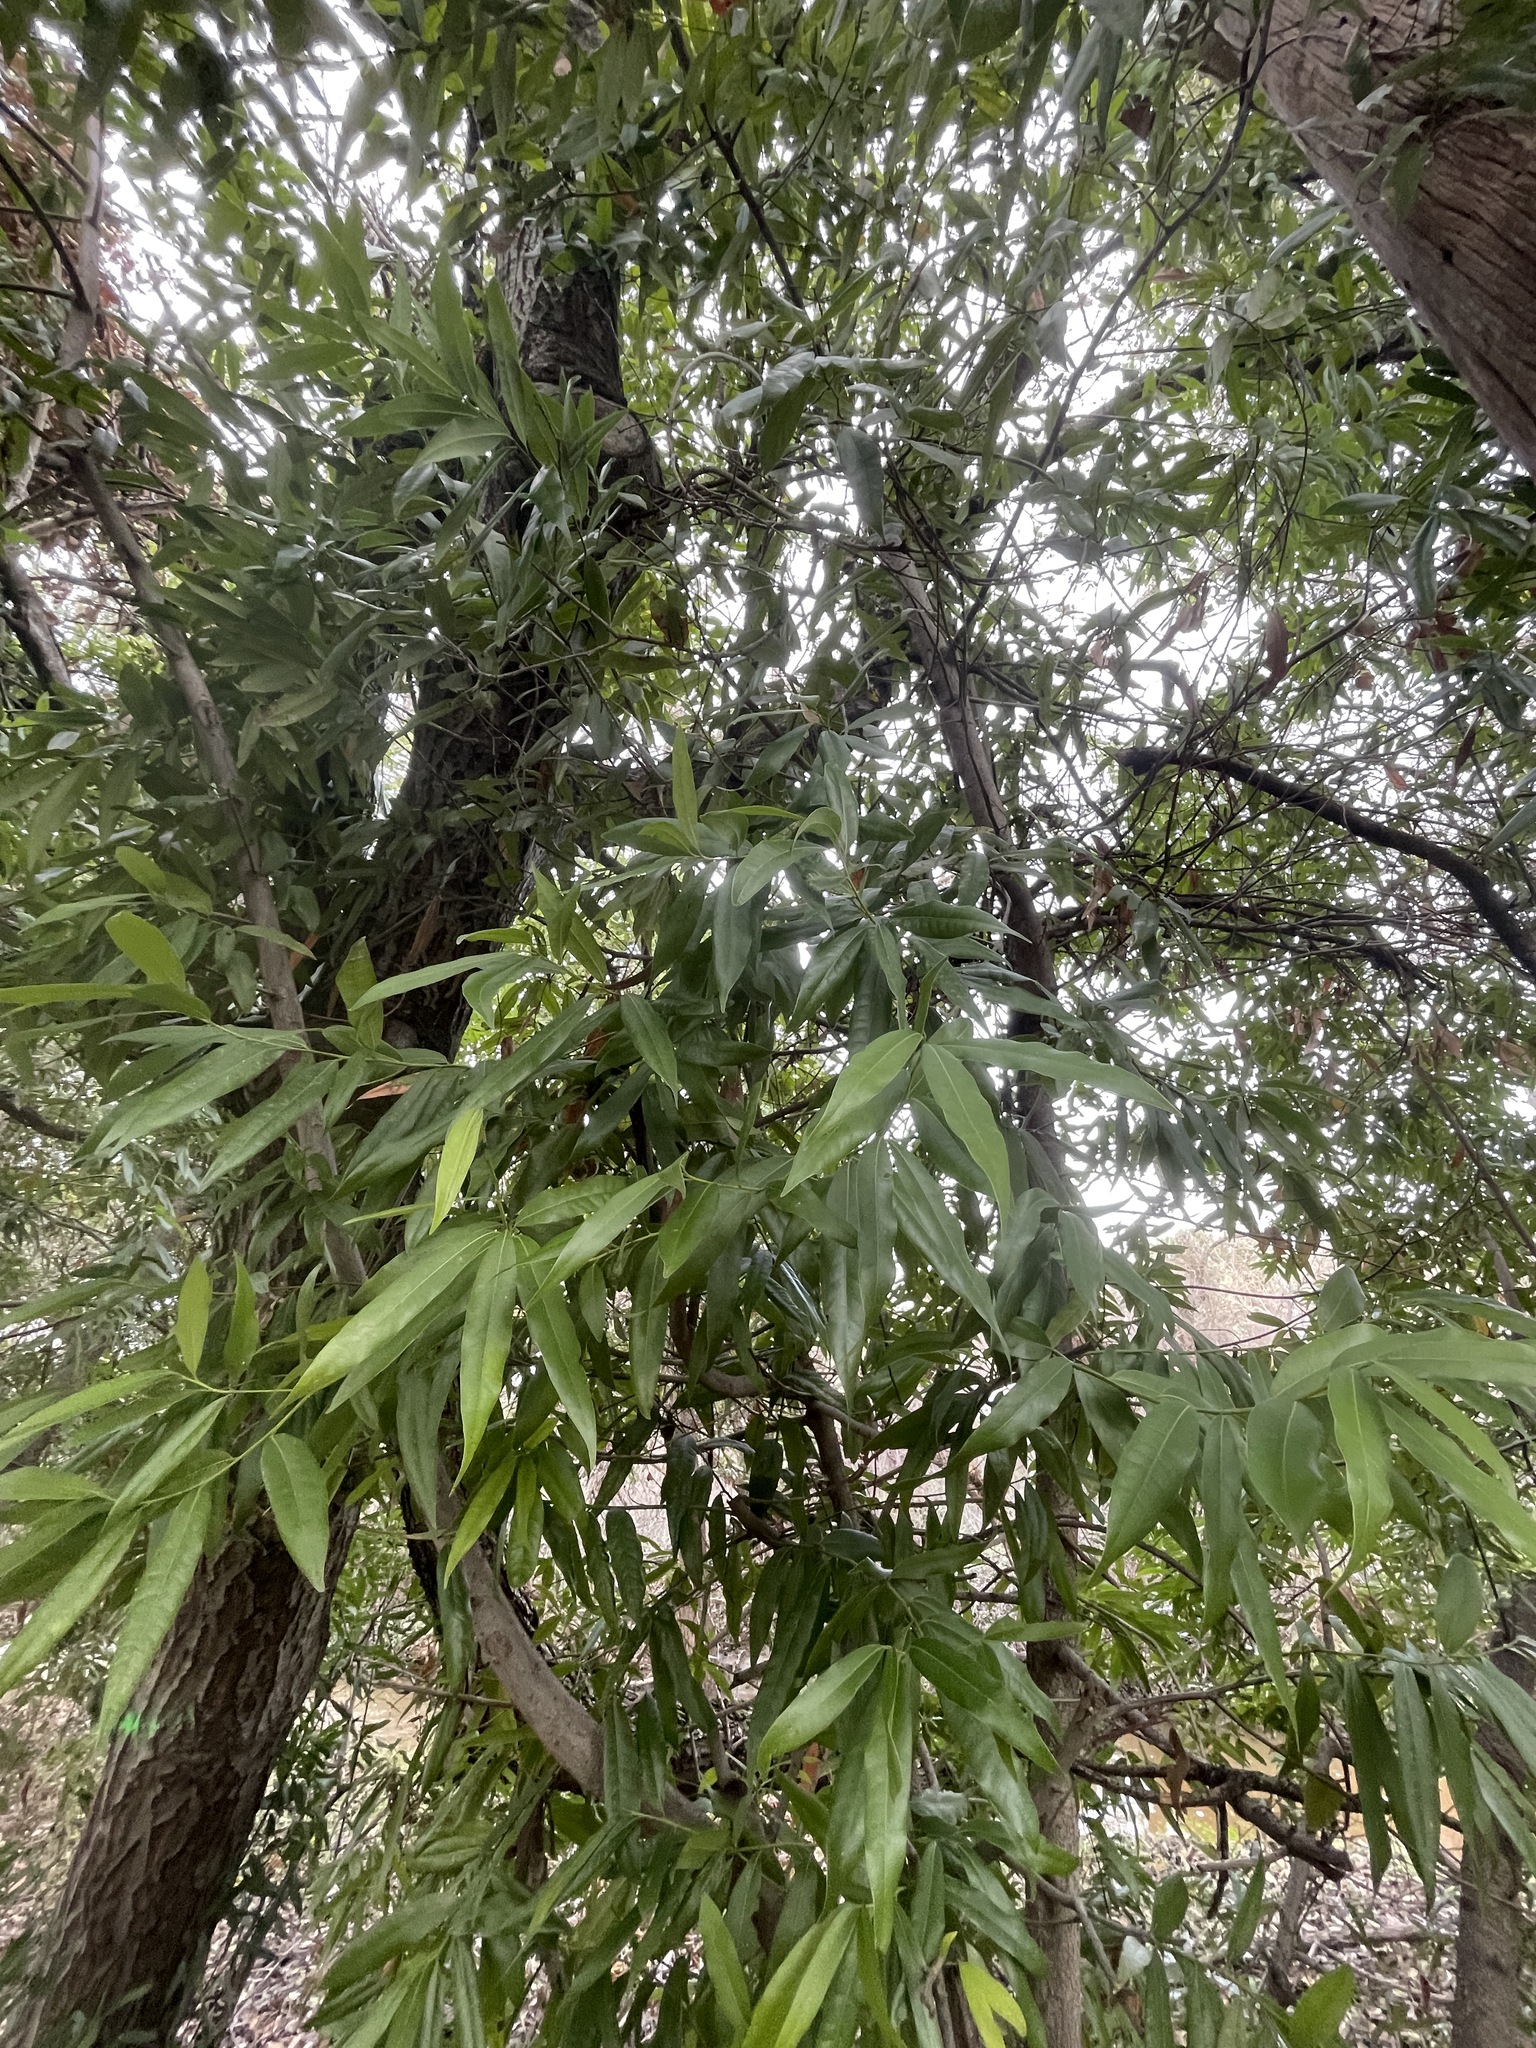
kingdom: Plantae
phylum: Tracheophyta
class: Magnoliopsida
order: Laurales
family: Lauraceae
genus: Umbellularia
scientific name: Umbellularia californica
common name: California bay
